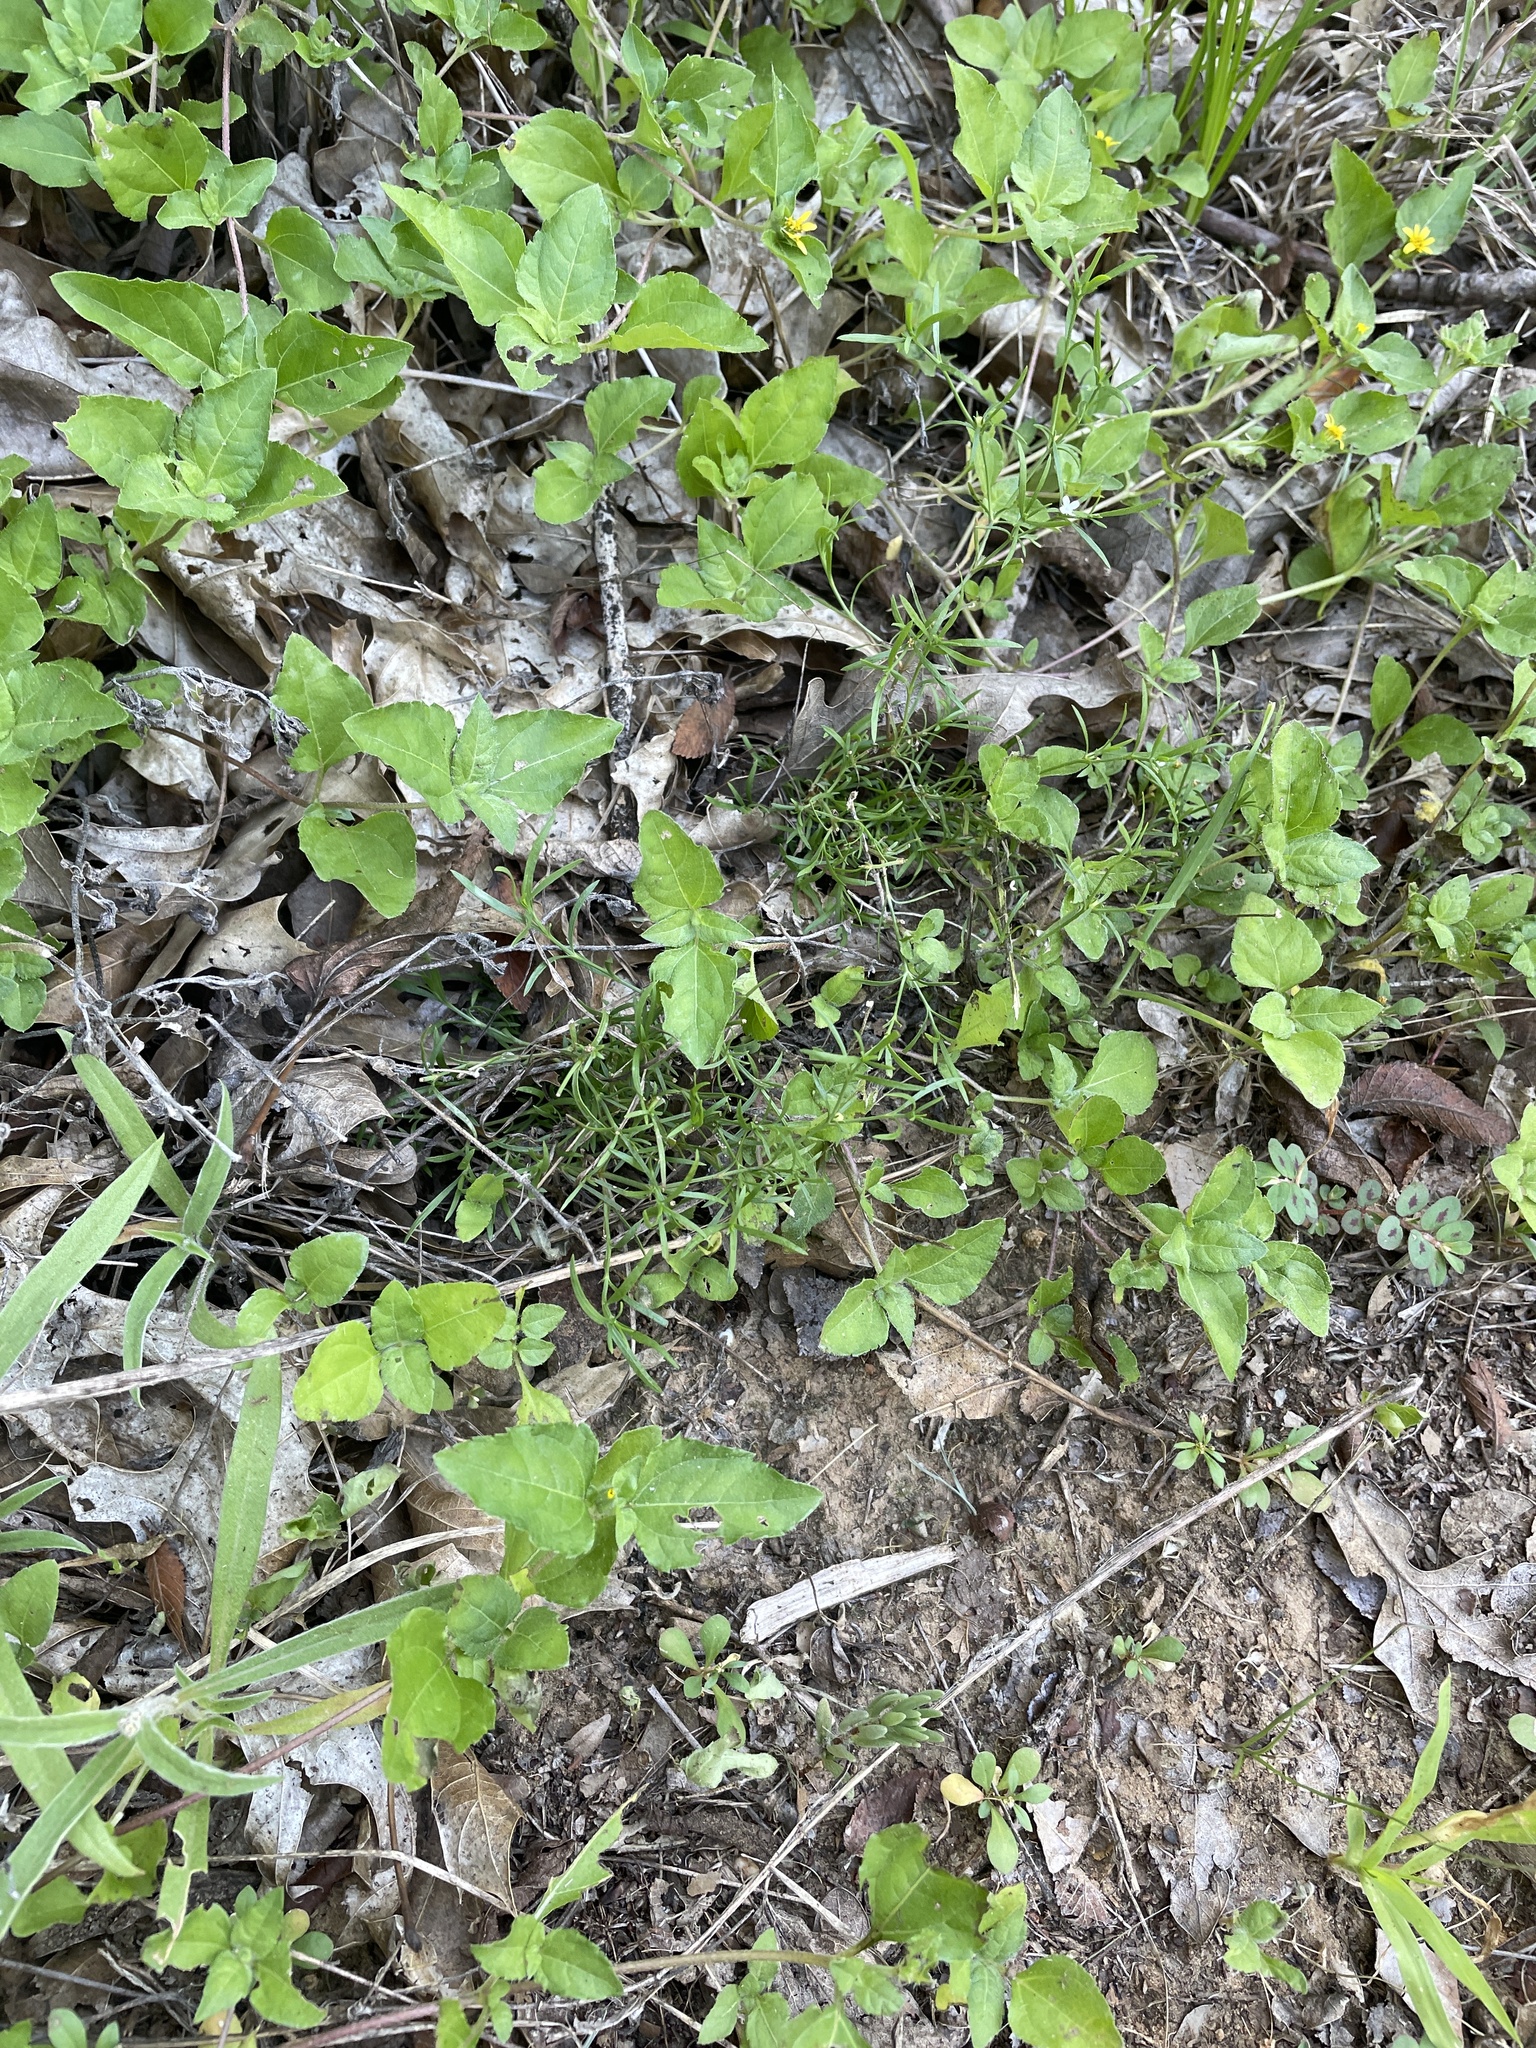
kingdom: Plantae
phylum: Tracheophyta
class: Magnoliopsida
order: Lamiales
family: Tetrachondraceae
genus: Polypremum
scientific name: Polypremum procumbens
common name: Juniper-leaf
